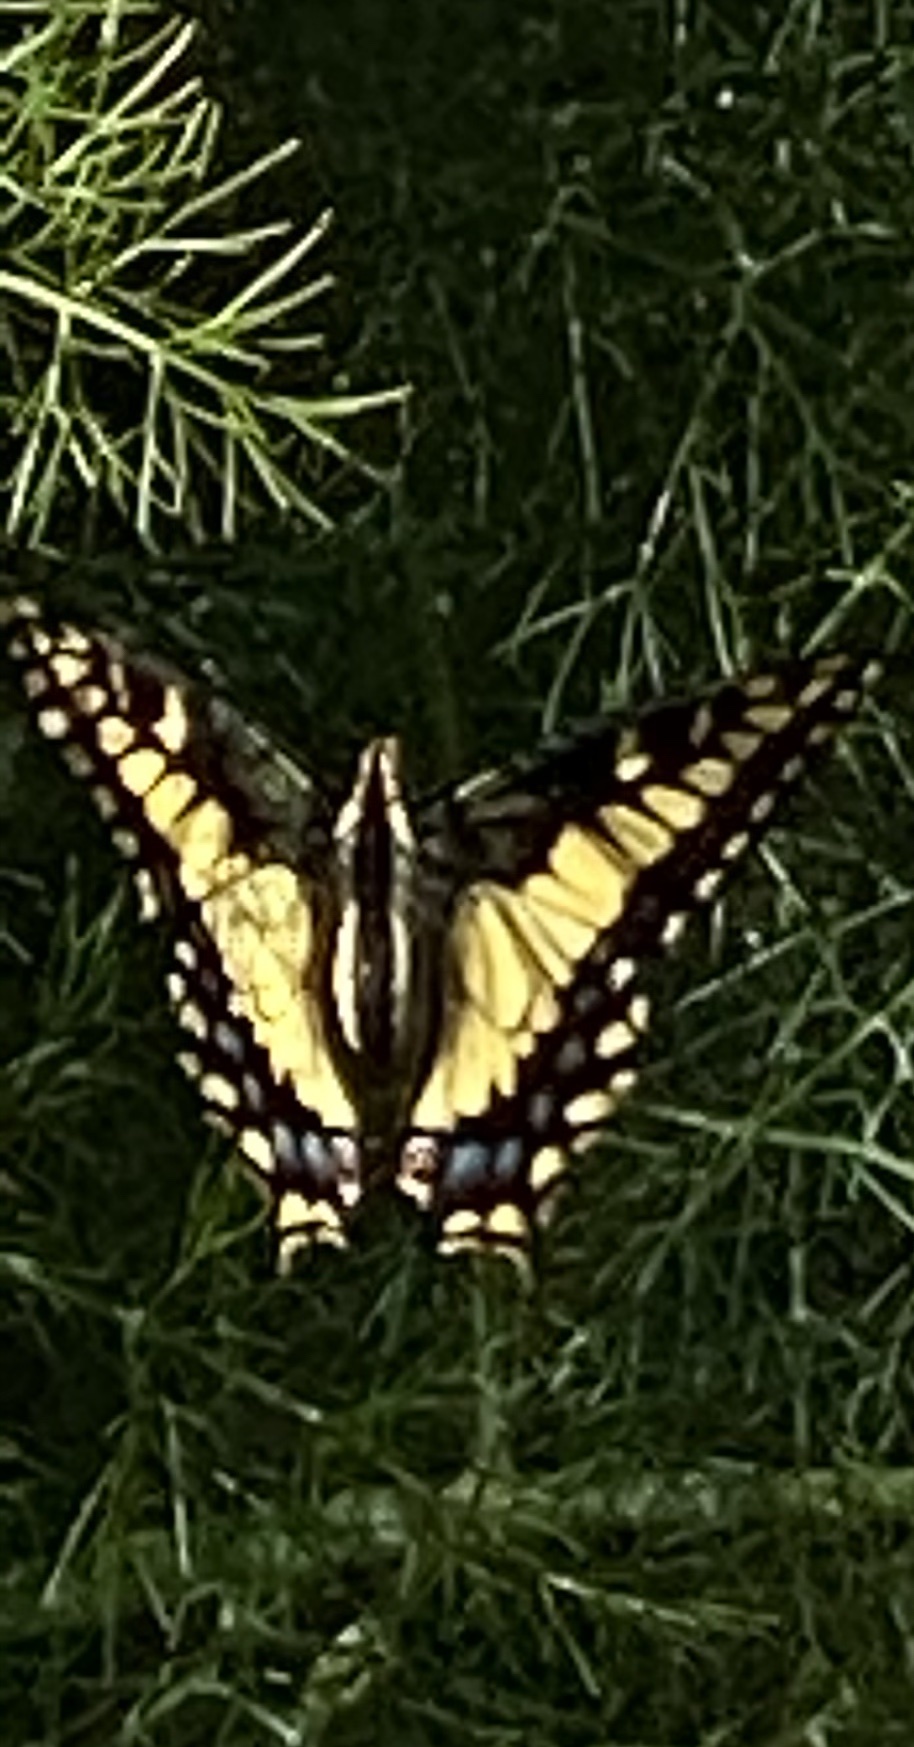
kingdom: Animalia
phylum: Arthropoda
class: Insecta
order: Lepidoptera
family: Papilionidae
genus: Papilio
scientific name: Papilio zelicaon
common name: Anise swallowtail
